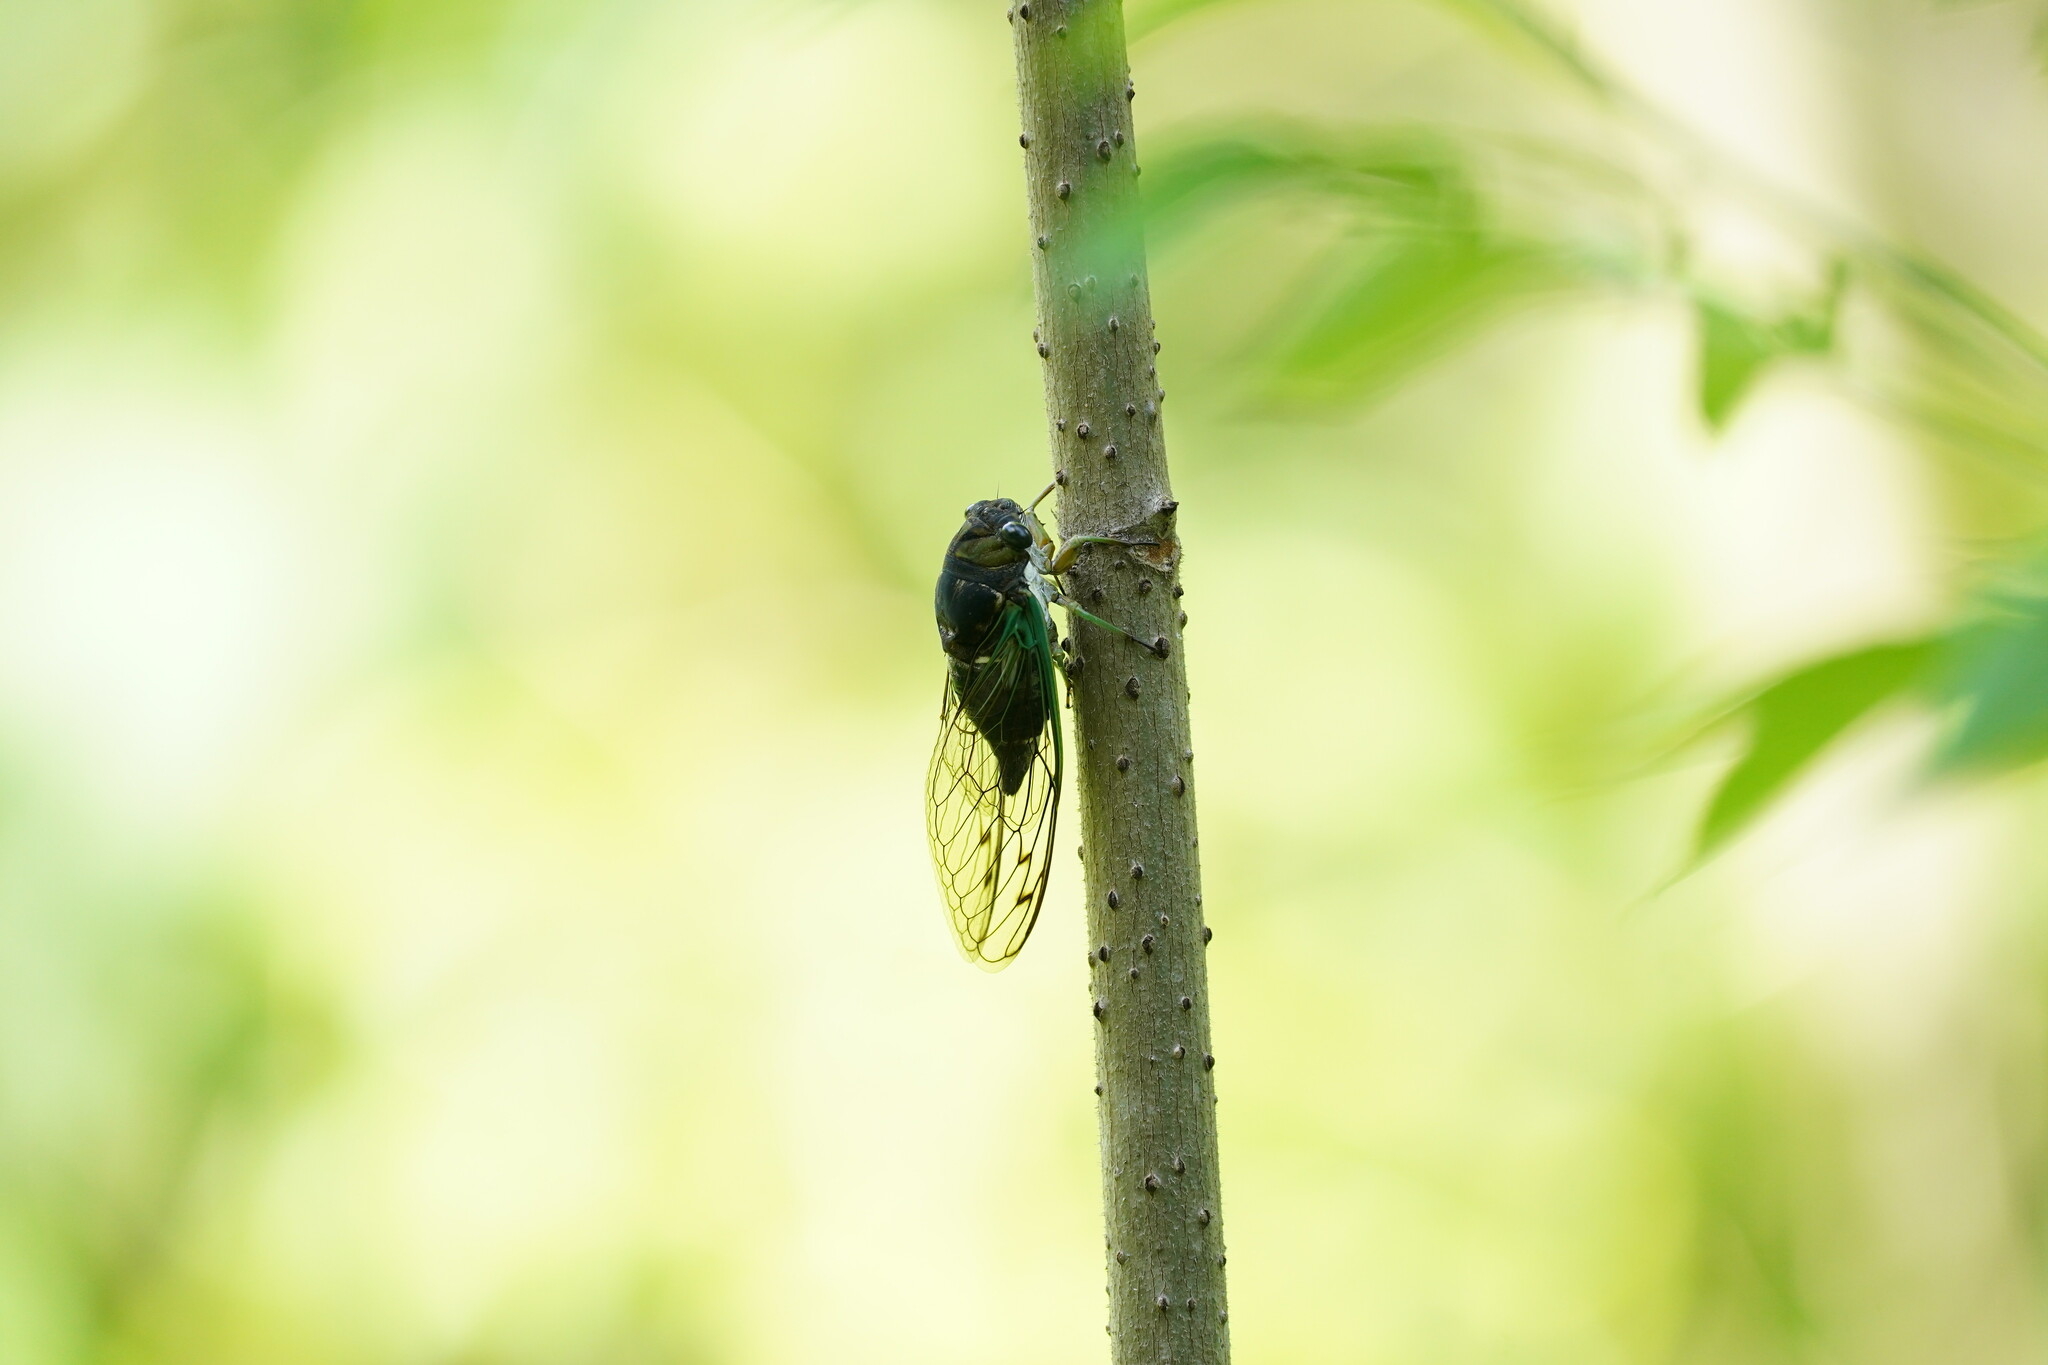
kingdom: Animalia
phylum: Arthropoda
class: Insecta
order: Hemiptera
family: Cicadidae
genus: Neotibicen
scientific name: Neotibicen tibicen
